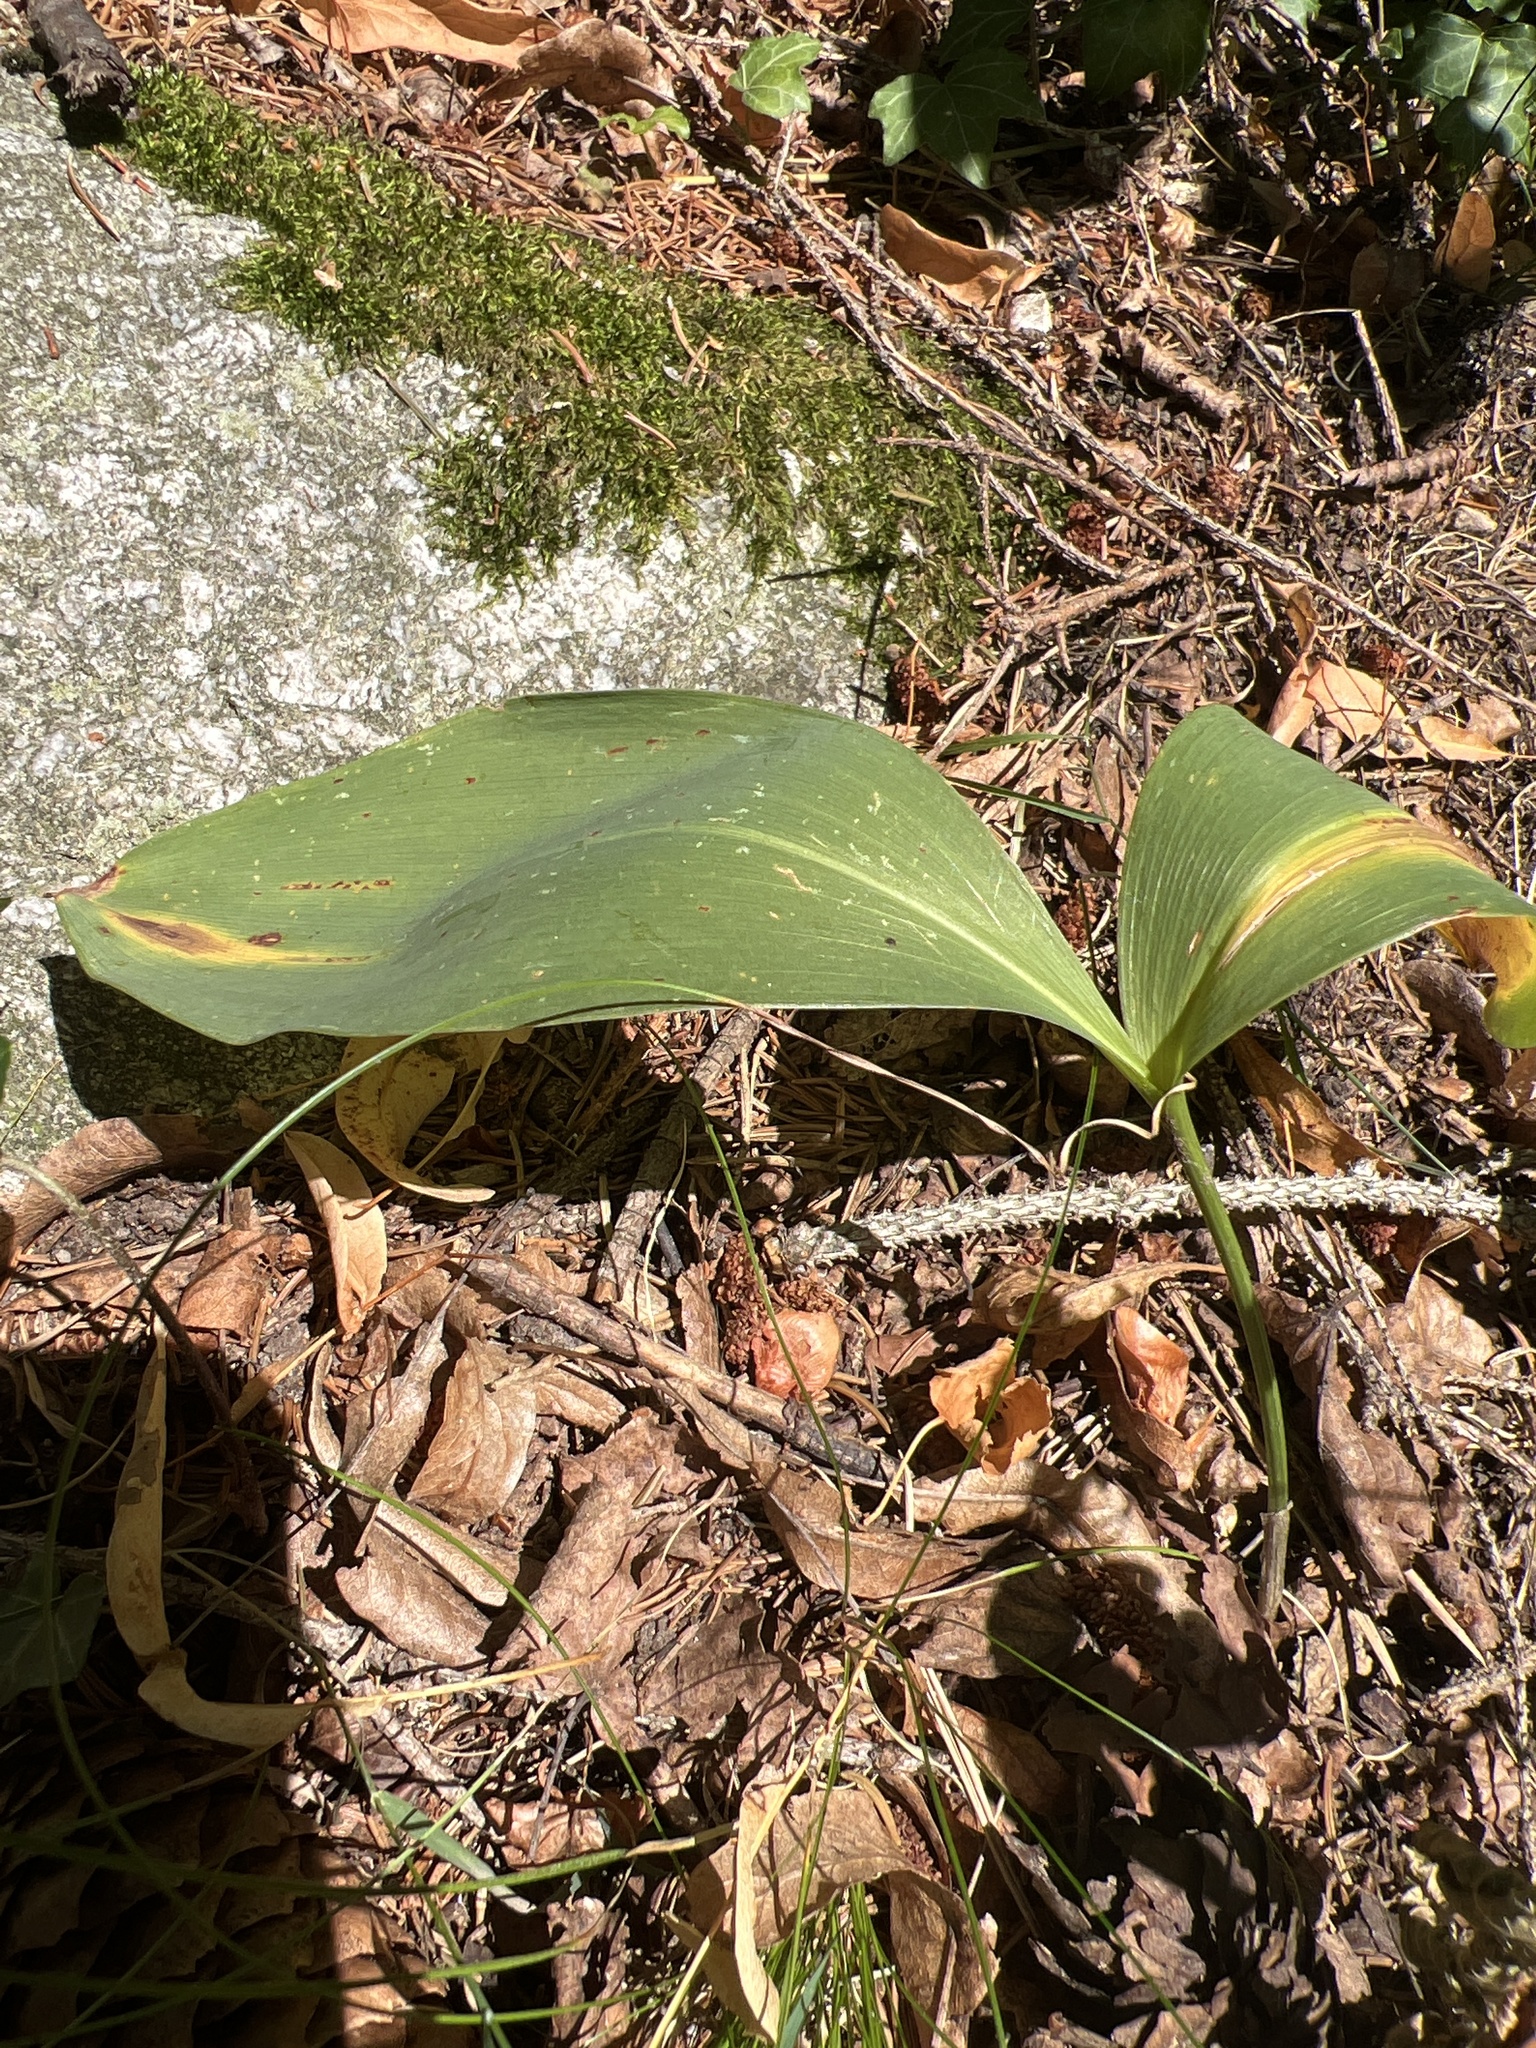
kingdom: Plantae
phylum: Tracheophyta
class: Liliopsida
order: Asparagales
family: Asparagaceae
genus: Convallaria
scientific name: Convallaria majalis
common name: Lily-of-the-valley
